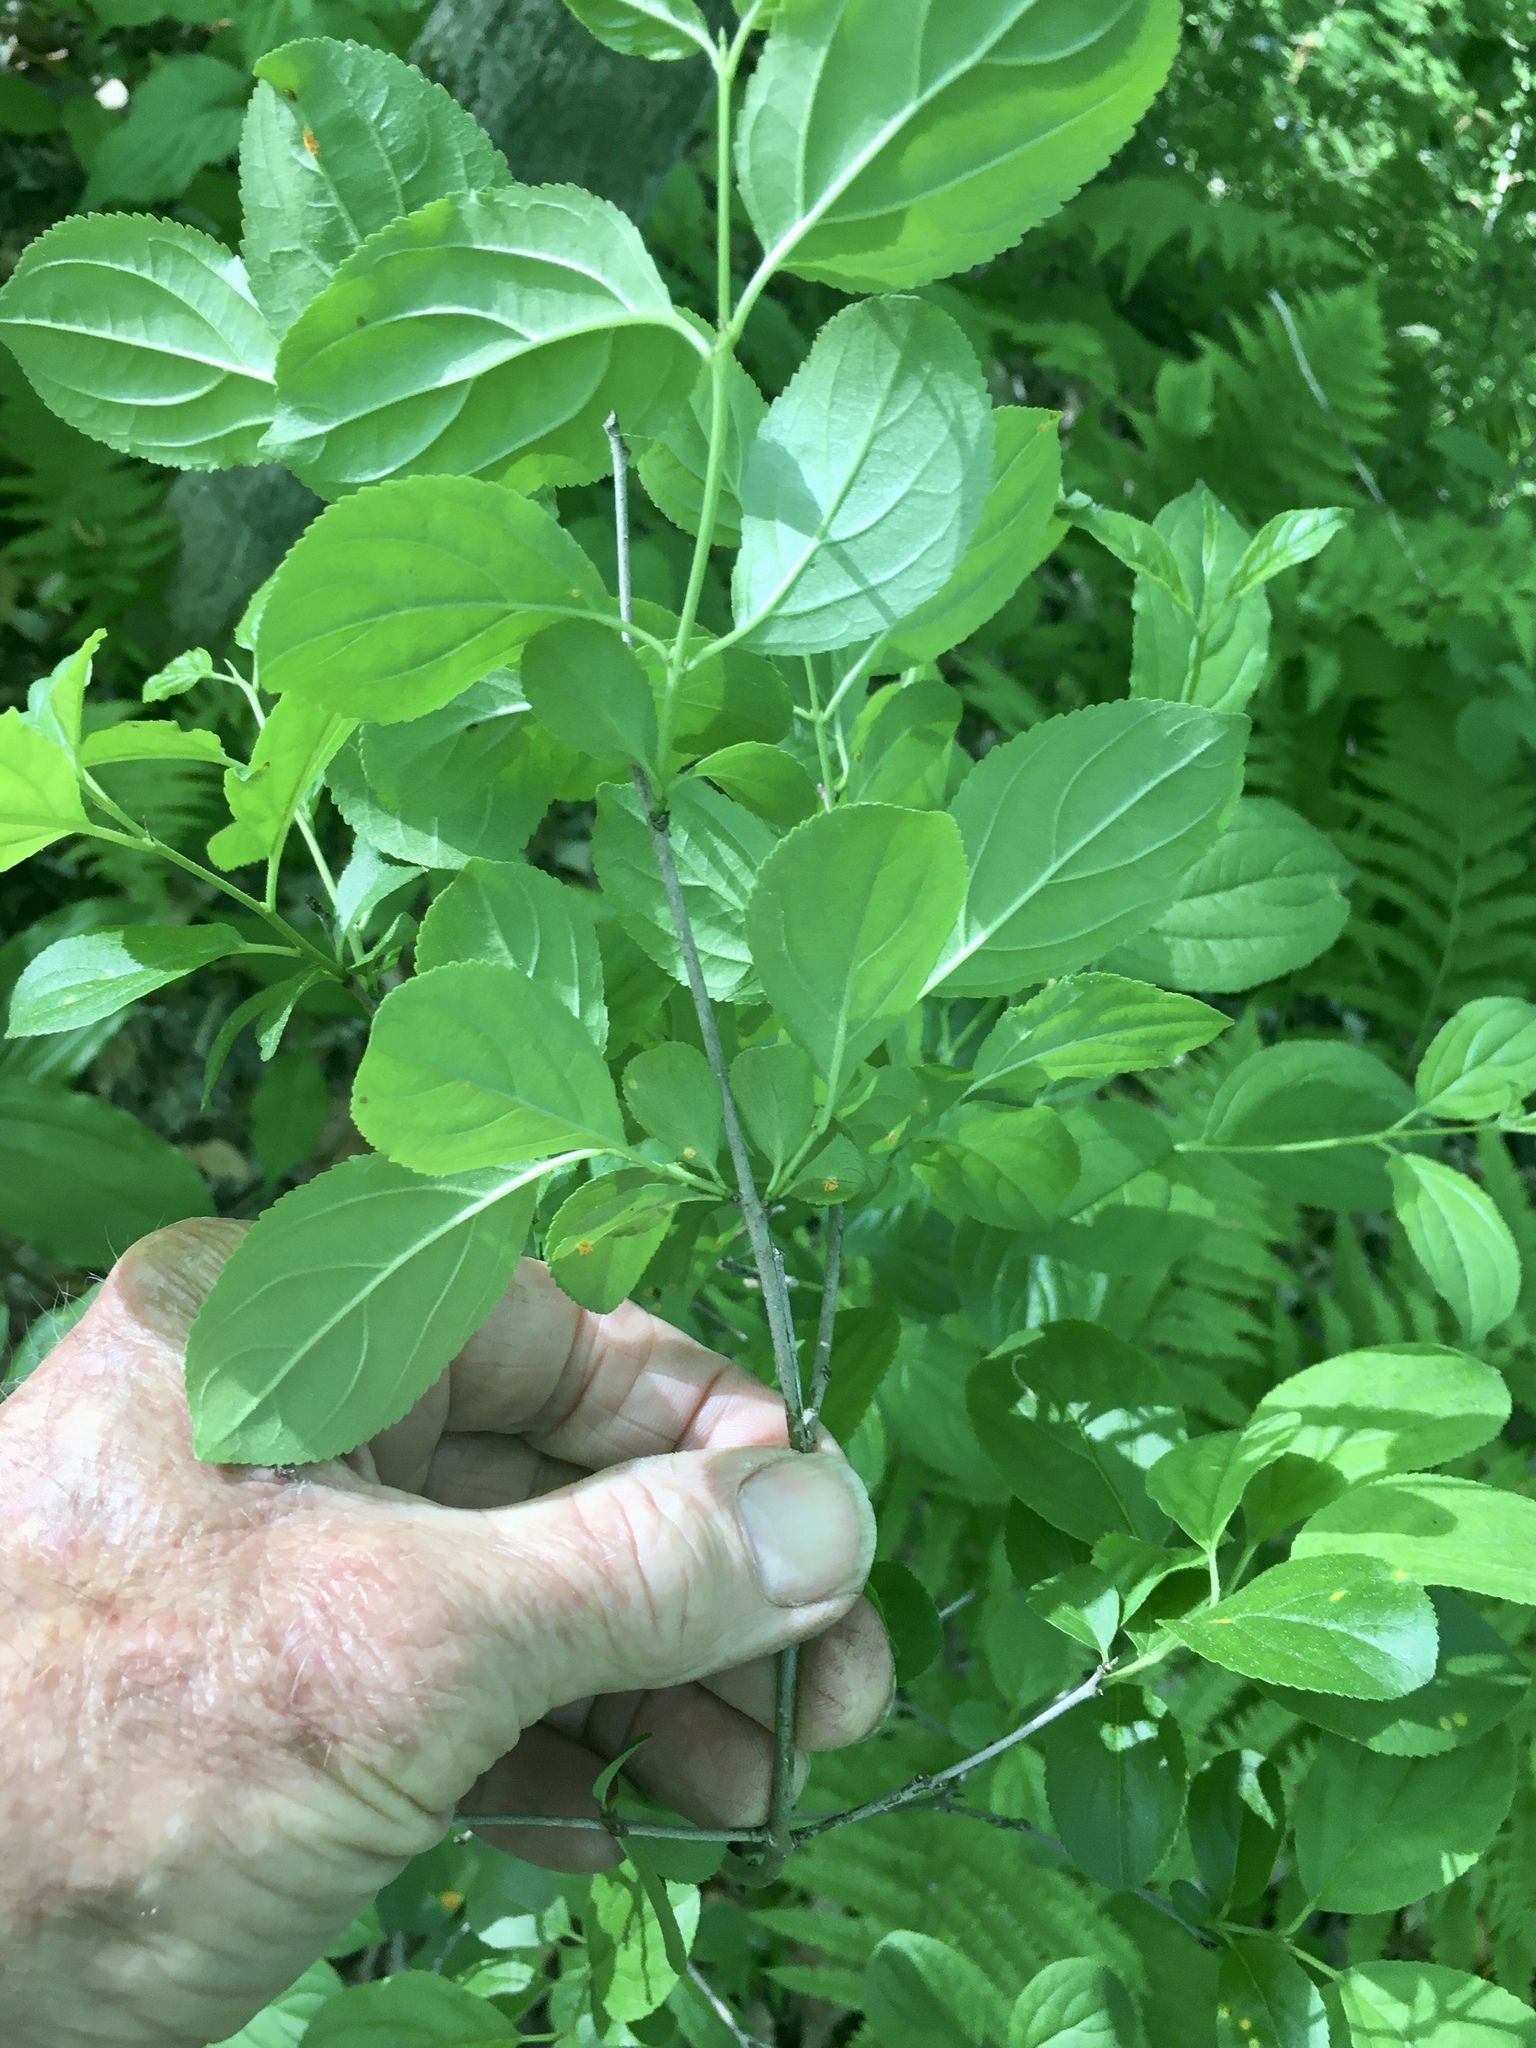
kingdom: Plantae
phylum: Tracheophyta
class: Magnoliopsida
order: Rosales
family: Rhamnaceae
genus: Rhamnus
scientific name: Rhamnus cathartica
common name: Common buckthorn
